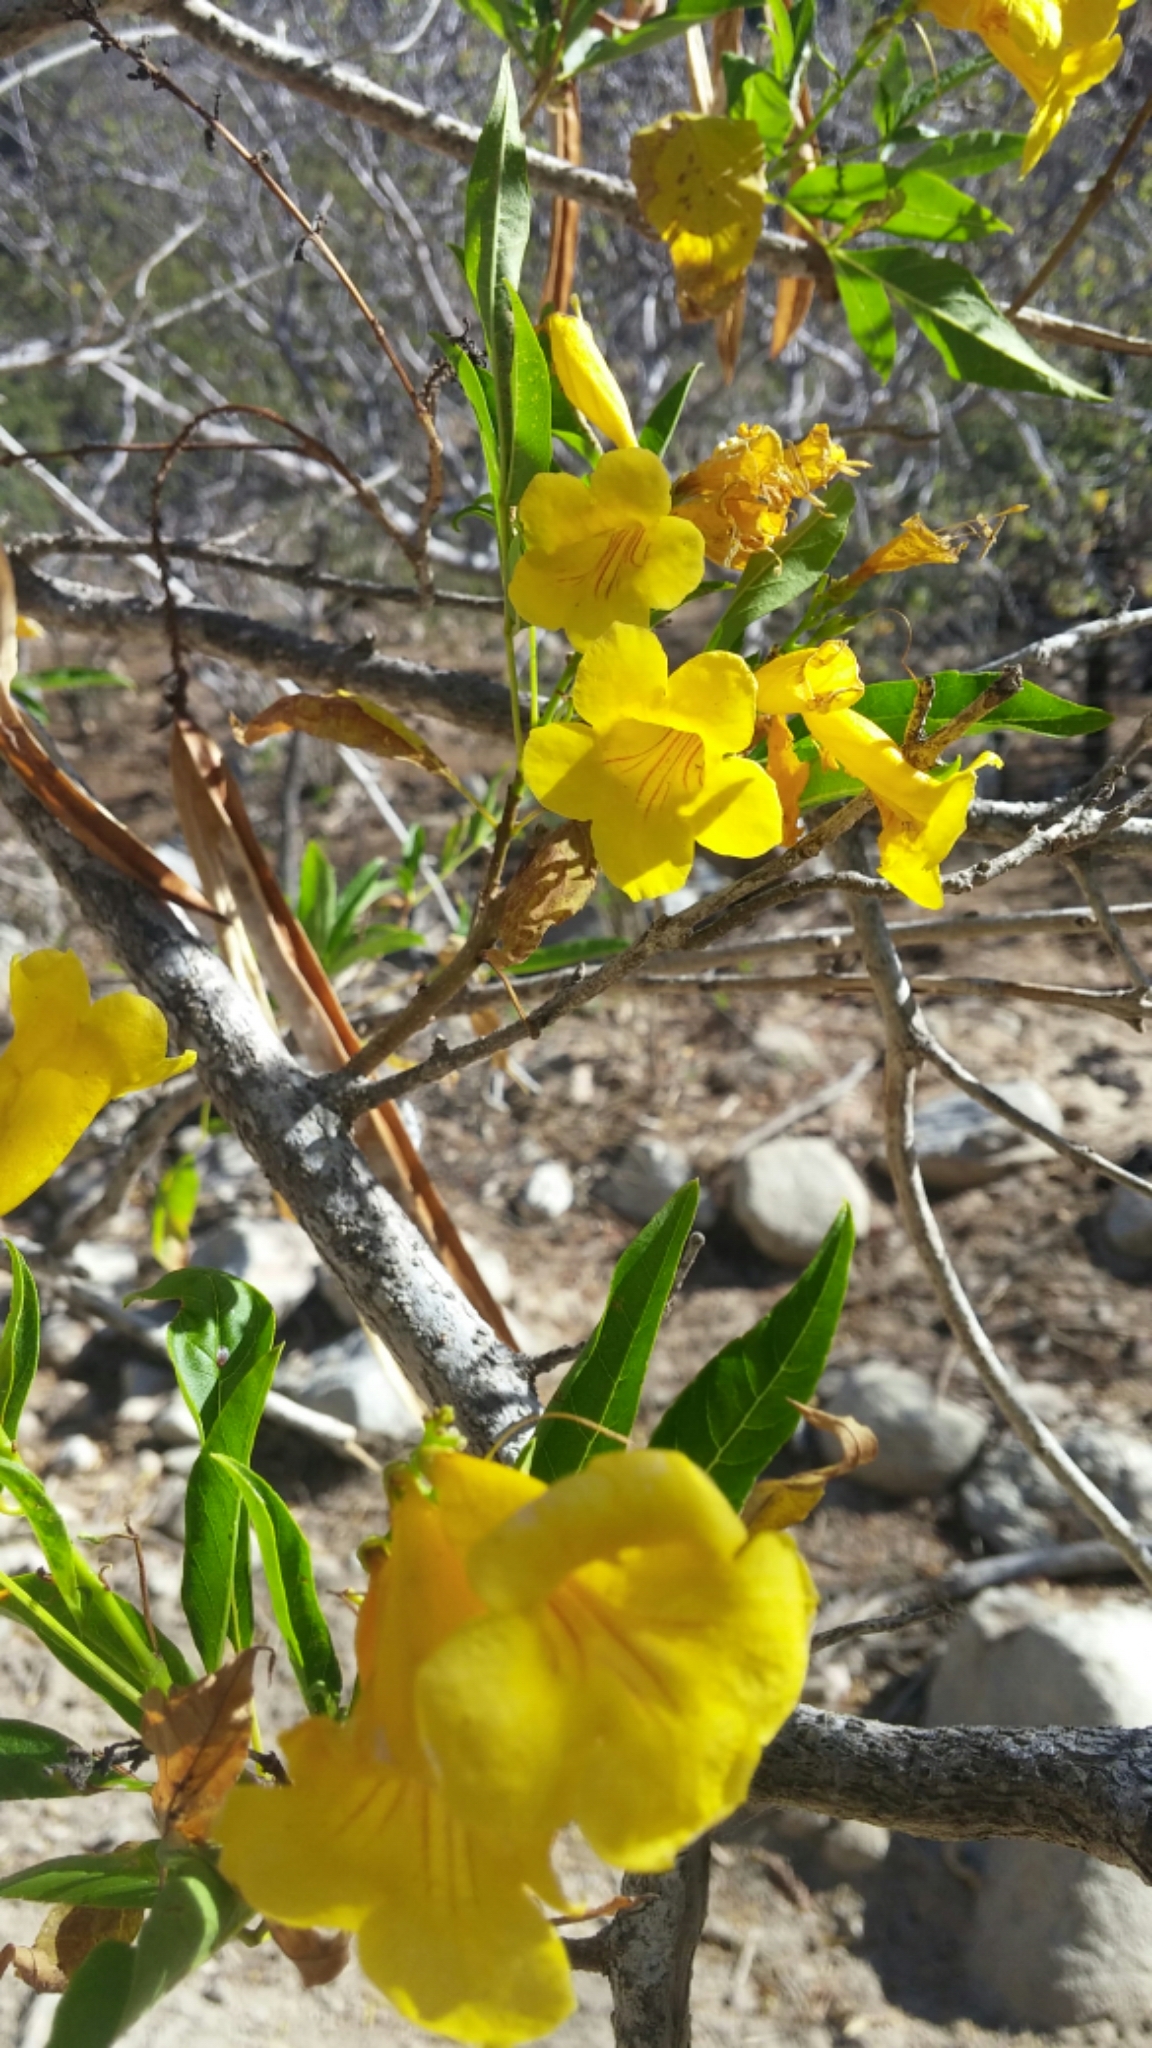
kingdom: Plantae
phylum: Tracheophyta
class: Magnoliopsida
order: Lamiales
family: Bignoniaceae
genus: Tecoma
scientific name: Tecoma stans
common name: Yellow trumpetbush
